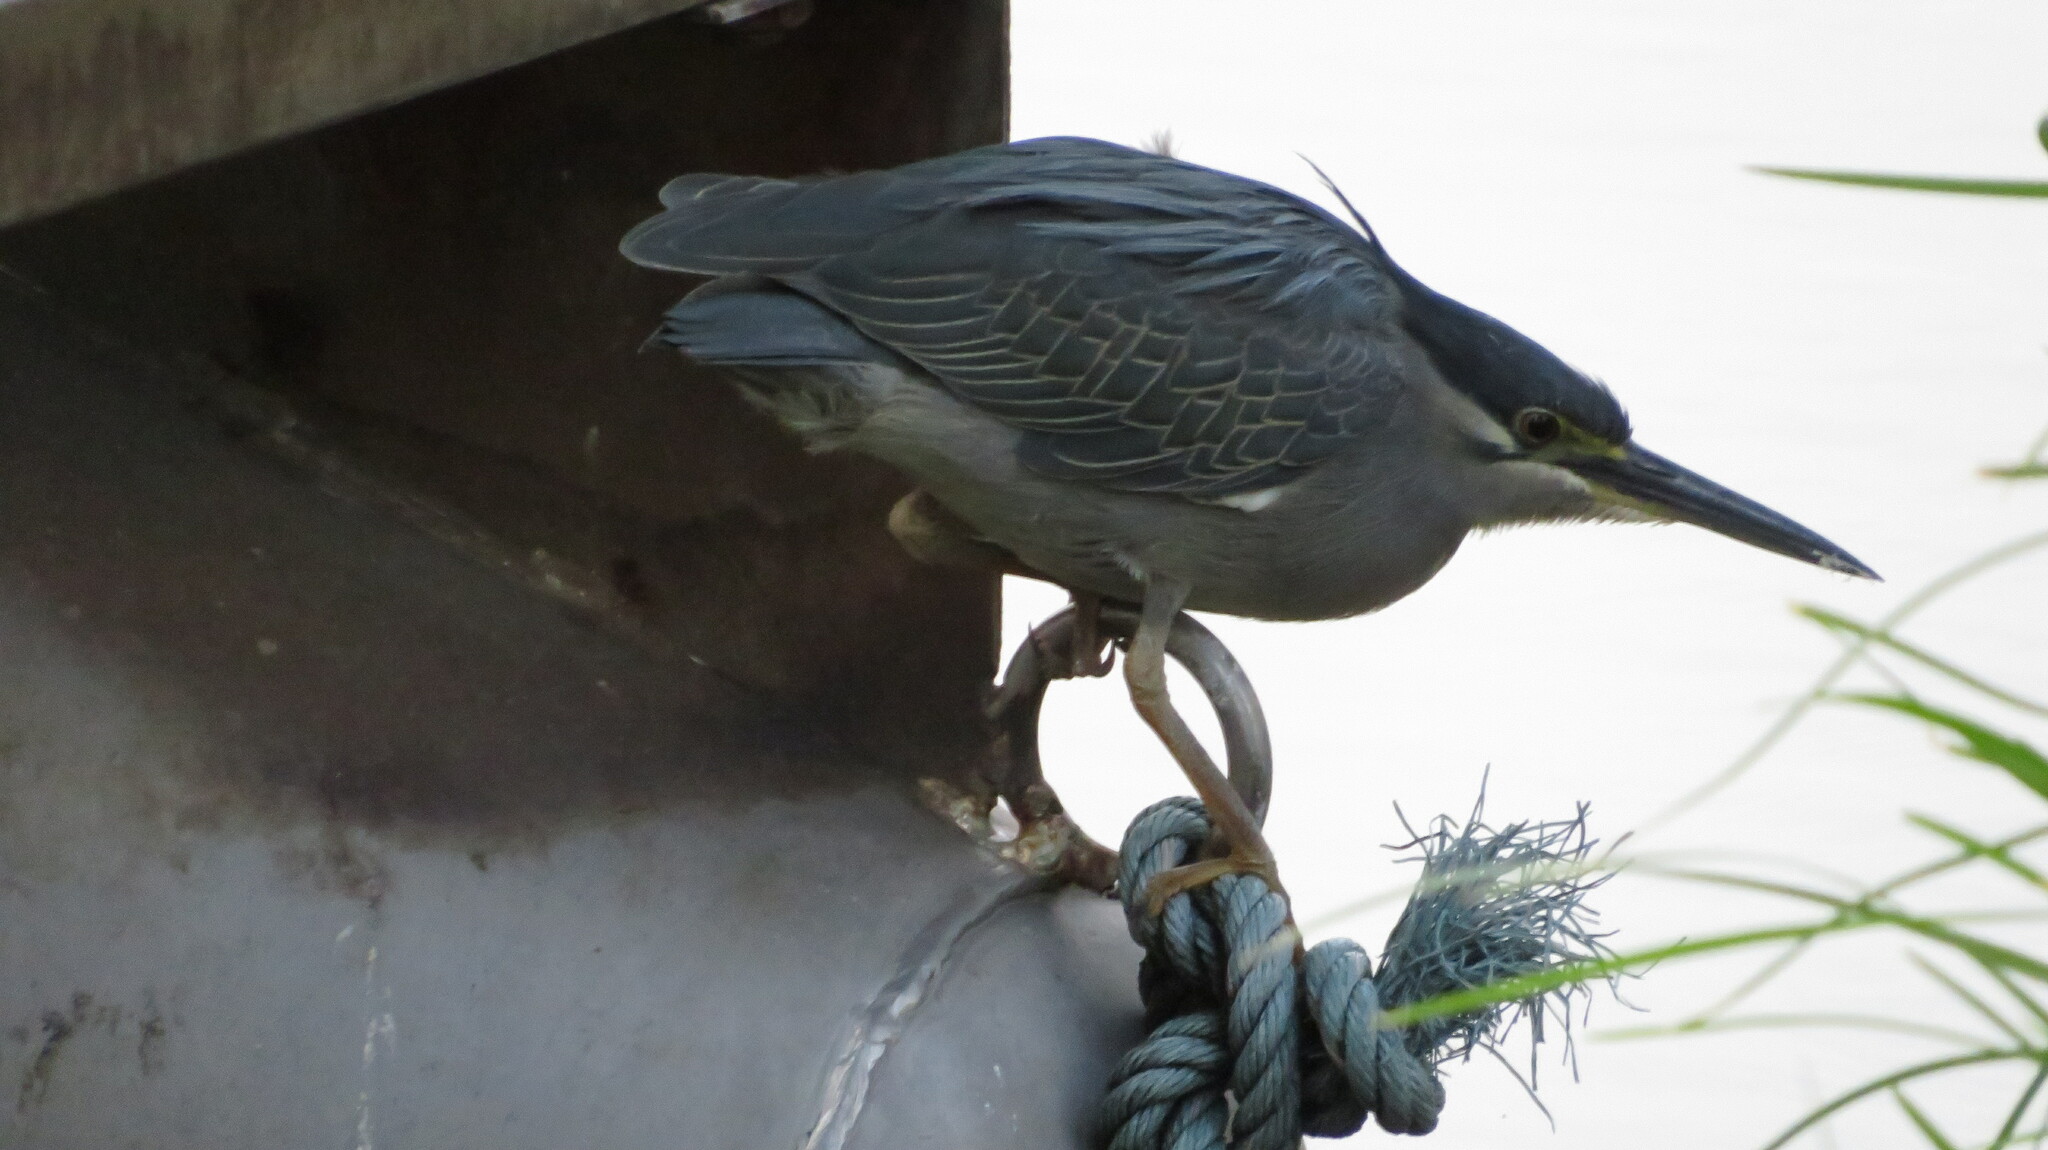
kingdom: Animalia
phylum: Chordata
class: Aves
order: Pelecaniformes
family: Ardeidae
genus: Butorides
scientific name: Butorides striata
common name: Striated heron
